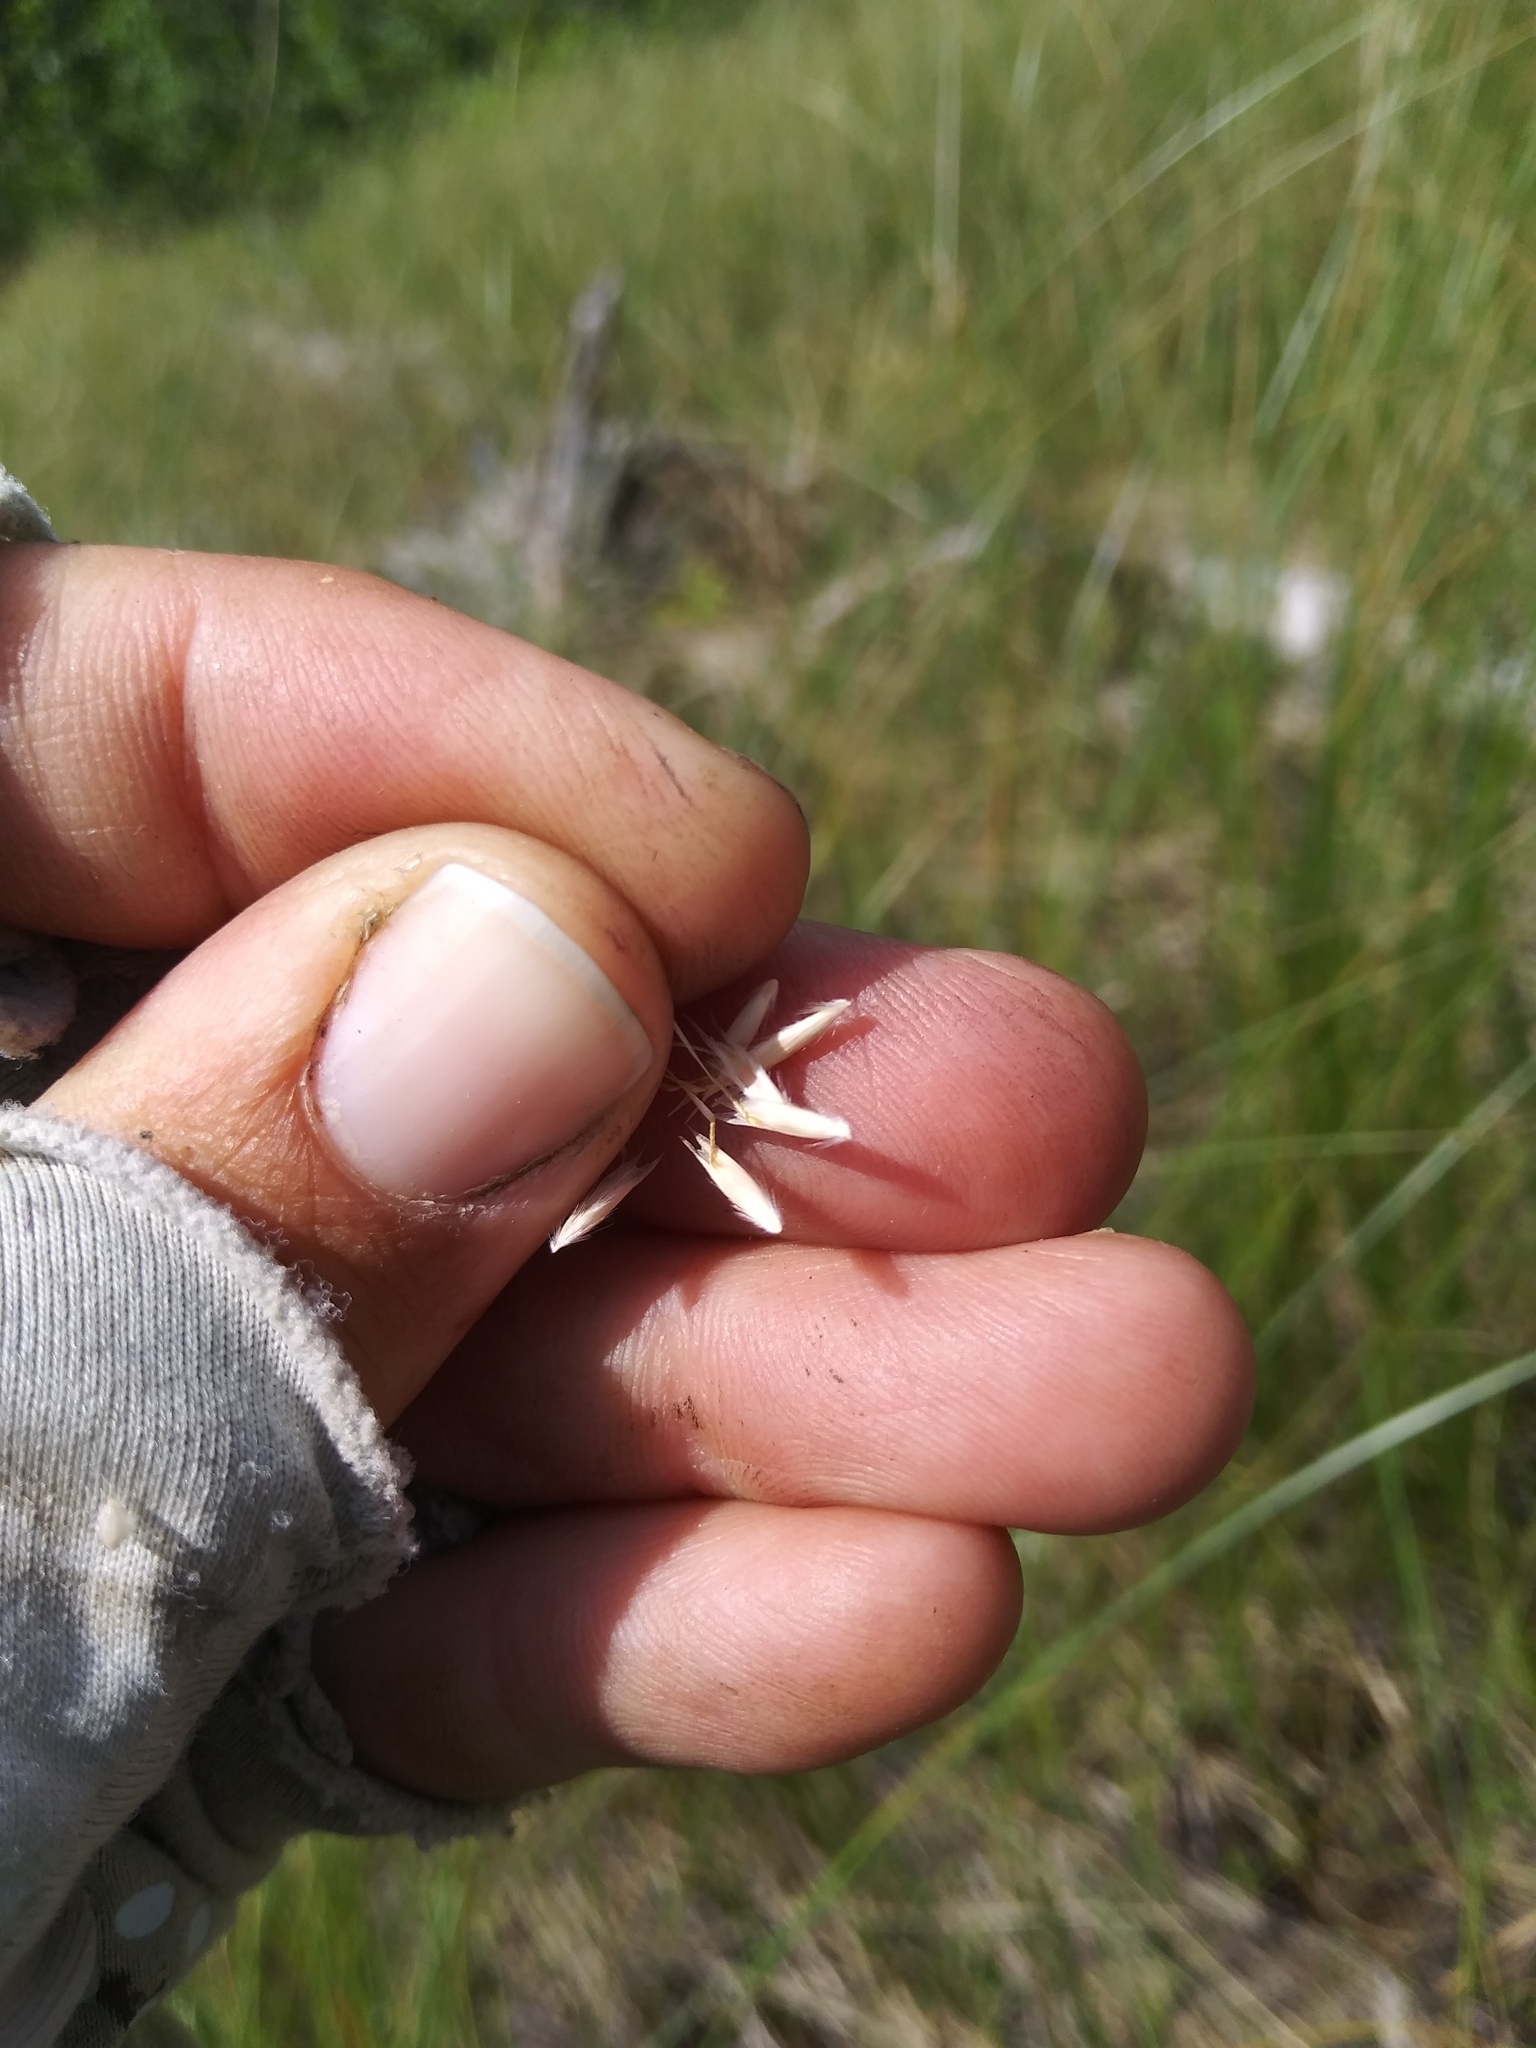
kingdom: Plantae
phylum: Tracheophyta
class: Liliopsida
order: Poales
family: Poaceae
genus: Danthonia
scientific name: Danthonia intermedia
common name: Intermediate oat grass
